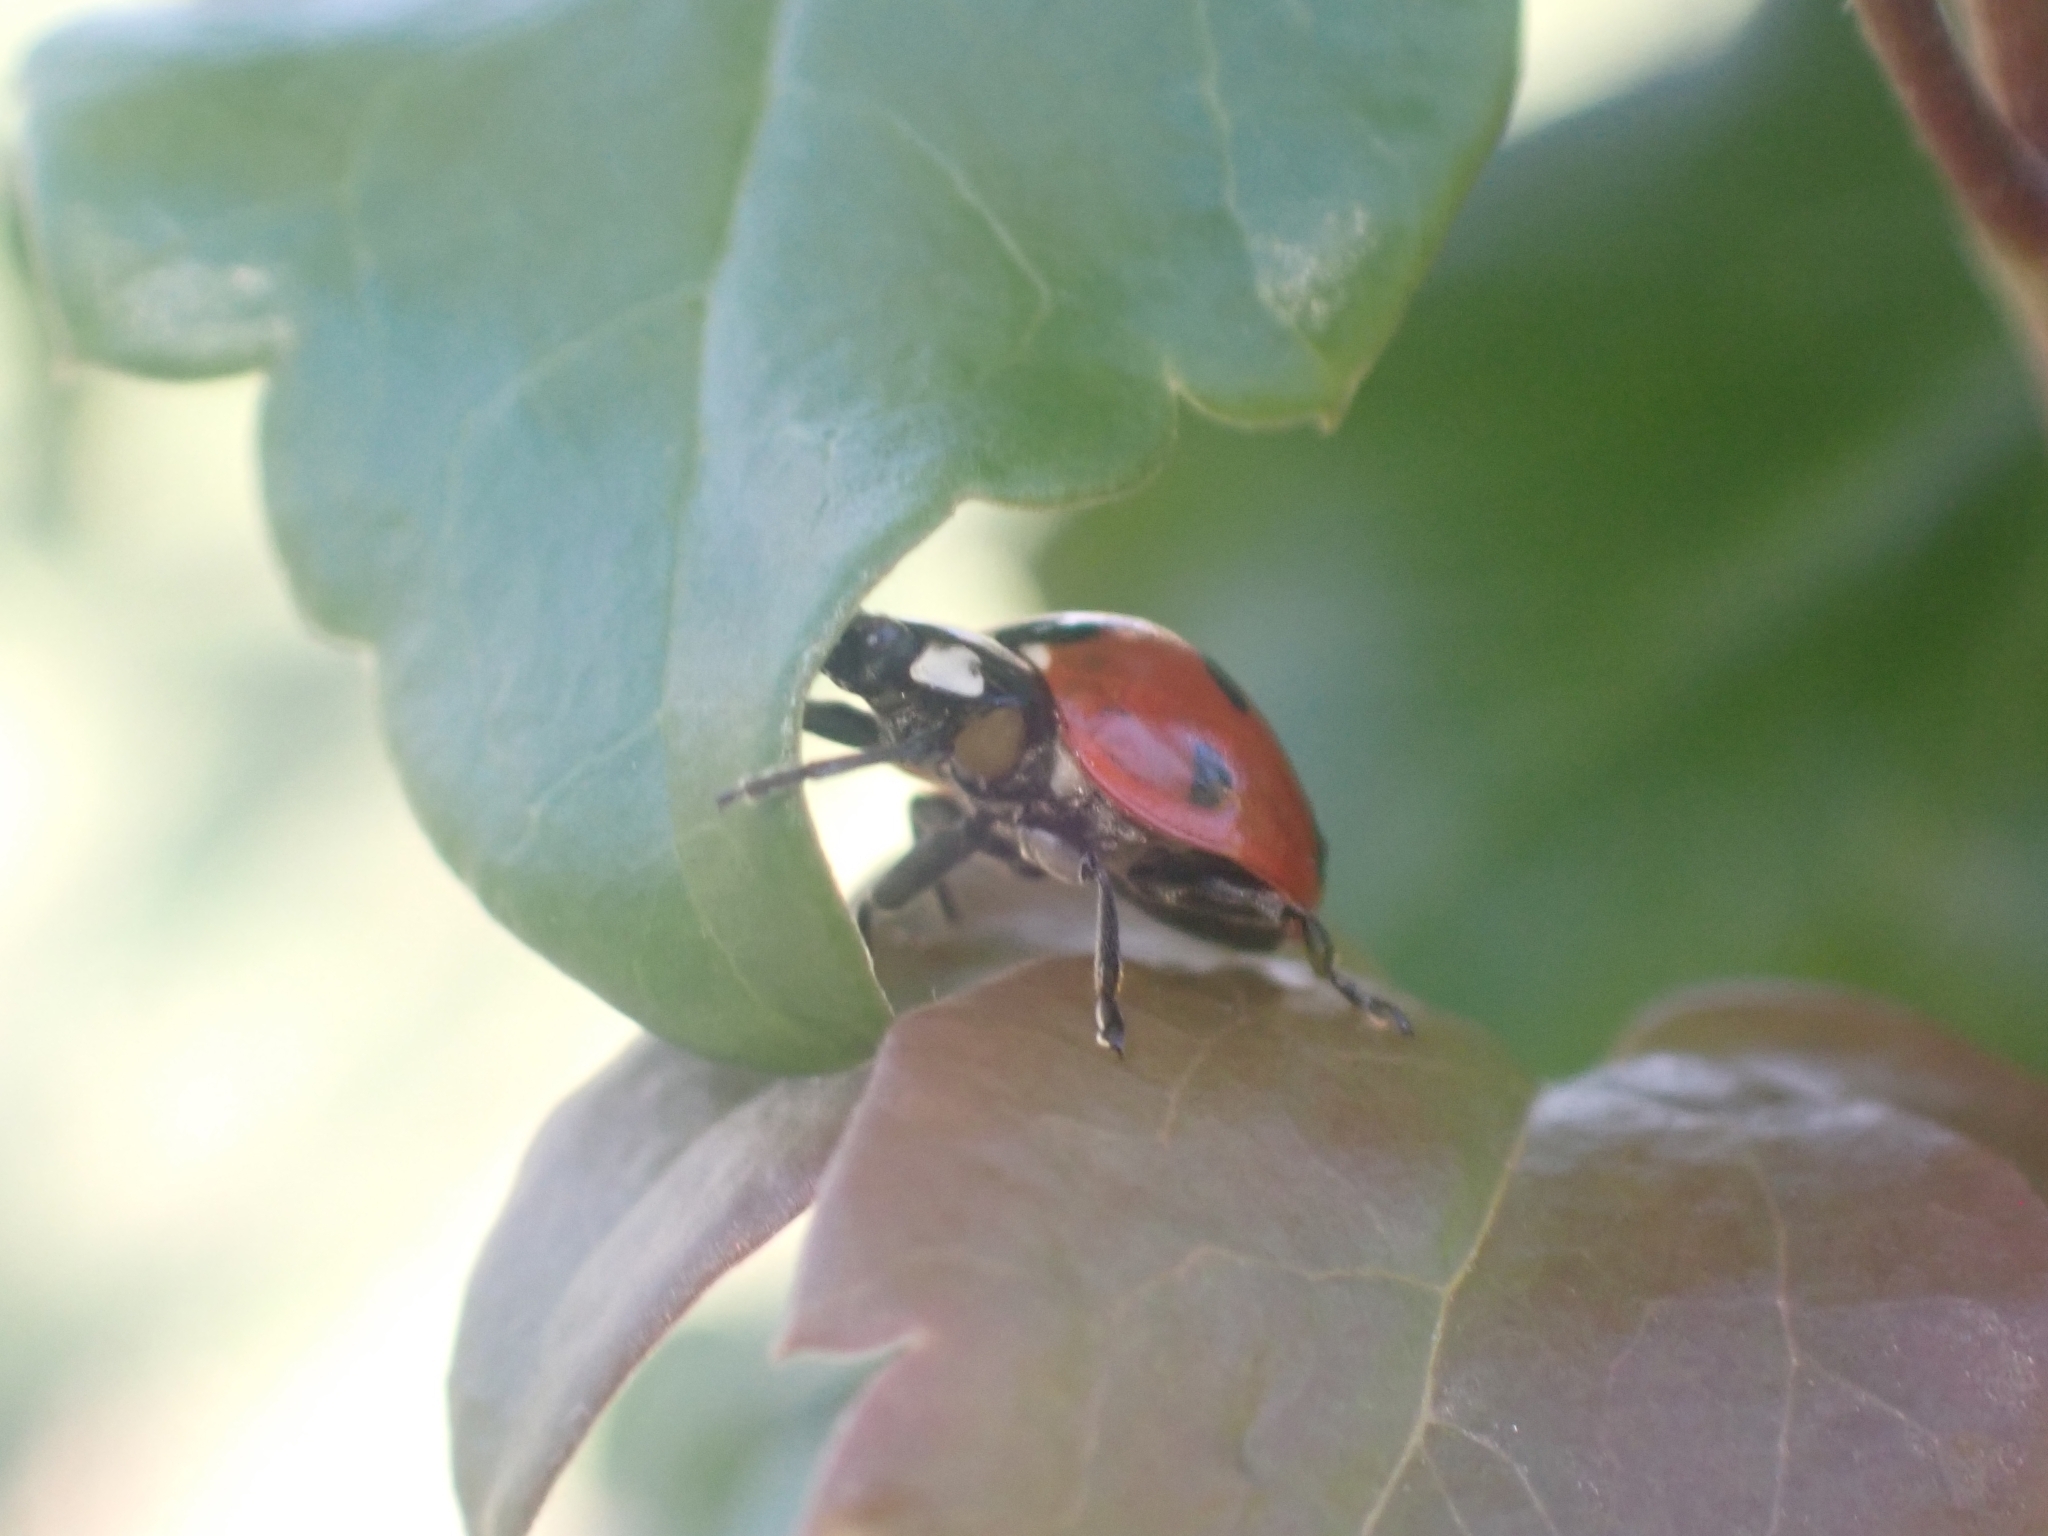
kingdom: Animalia
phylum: Arthropoda
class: Insecta
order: Coleoptera
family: Coccinellidae
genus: Coccinella
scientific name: Coccinella septempunctata
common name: Sevenspotted lady beetle
